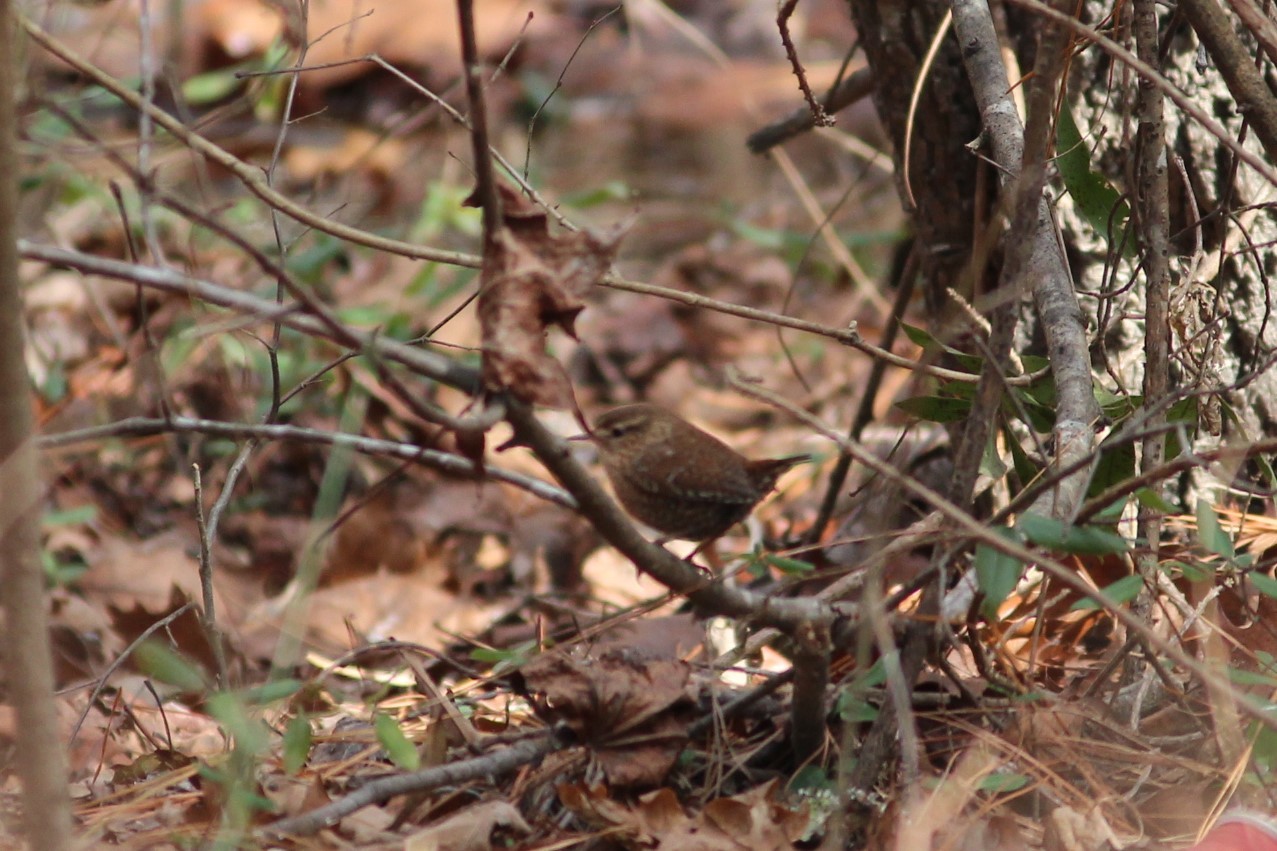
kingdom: Animalia
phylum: Chordata
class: Aves
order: Passeriformes
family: Troglodytidae
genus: Troglodytes
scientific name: Troglodytes hiemalis
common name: Winter wren
